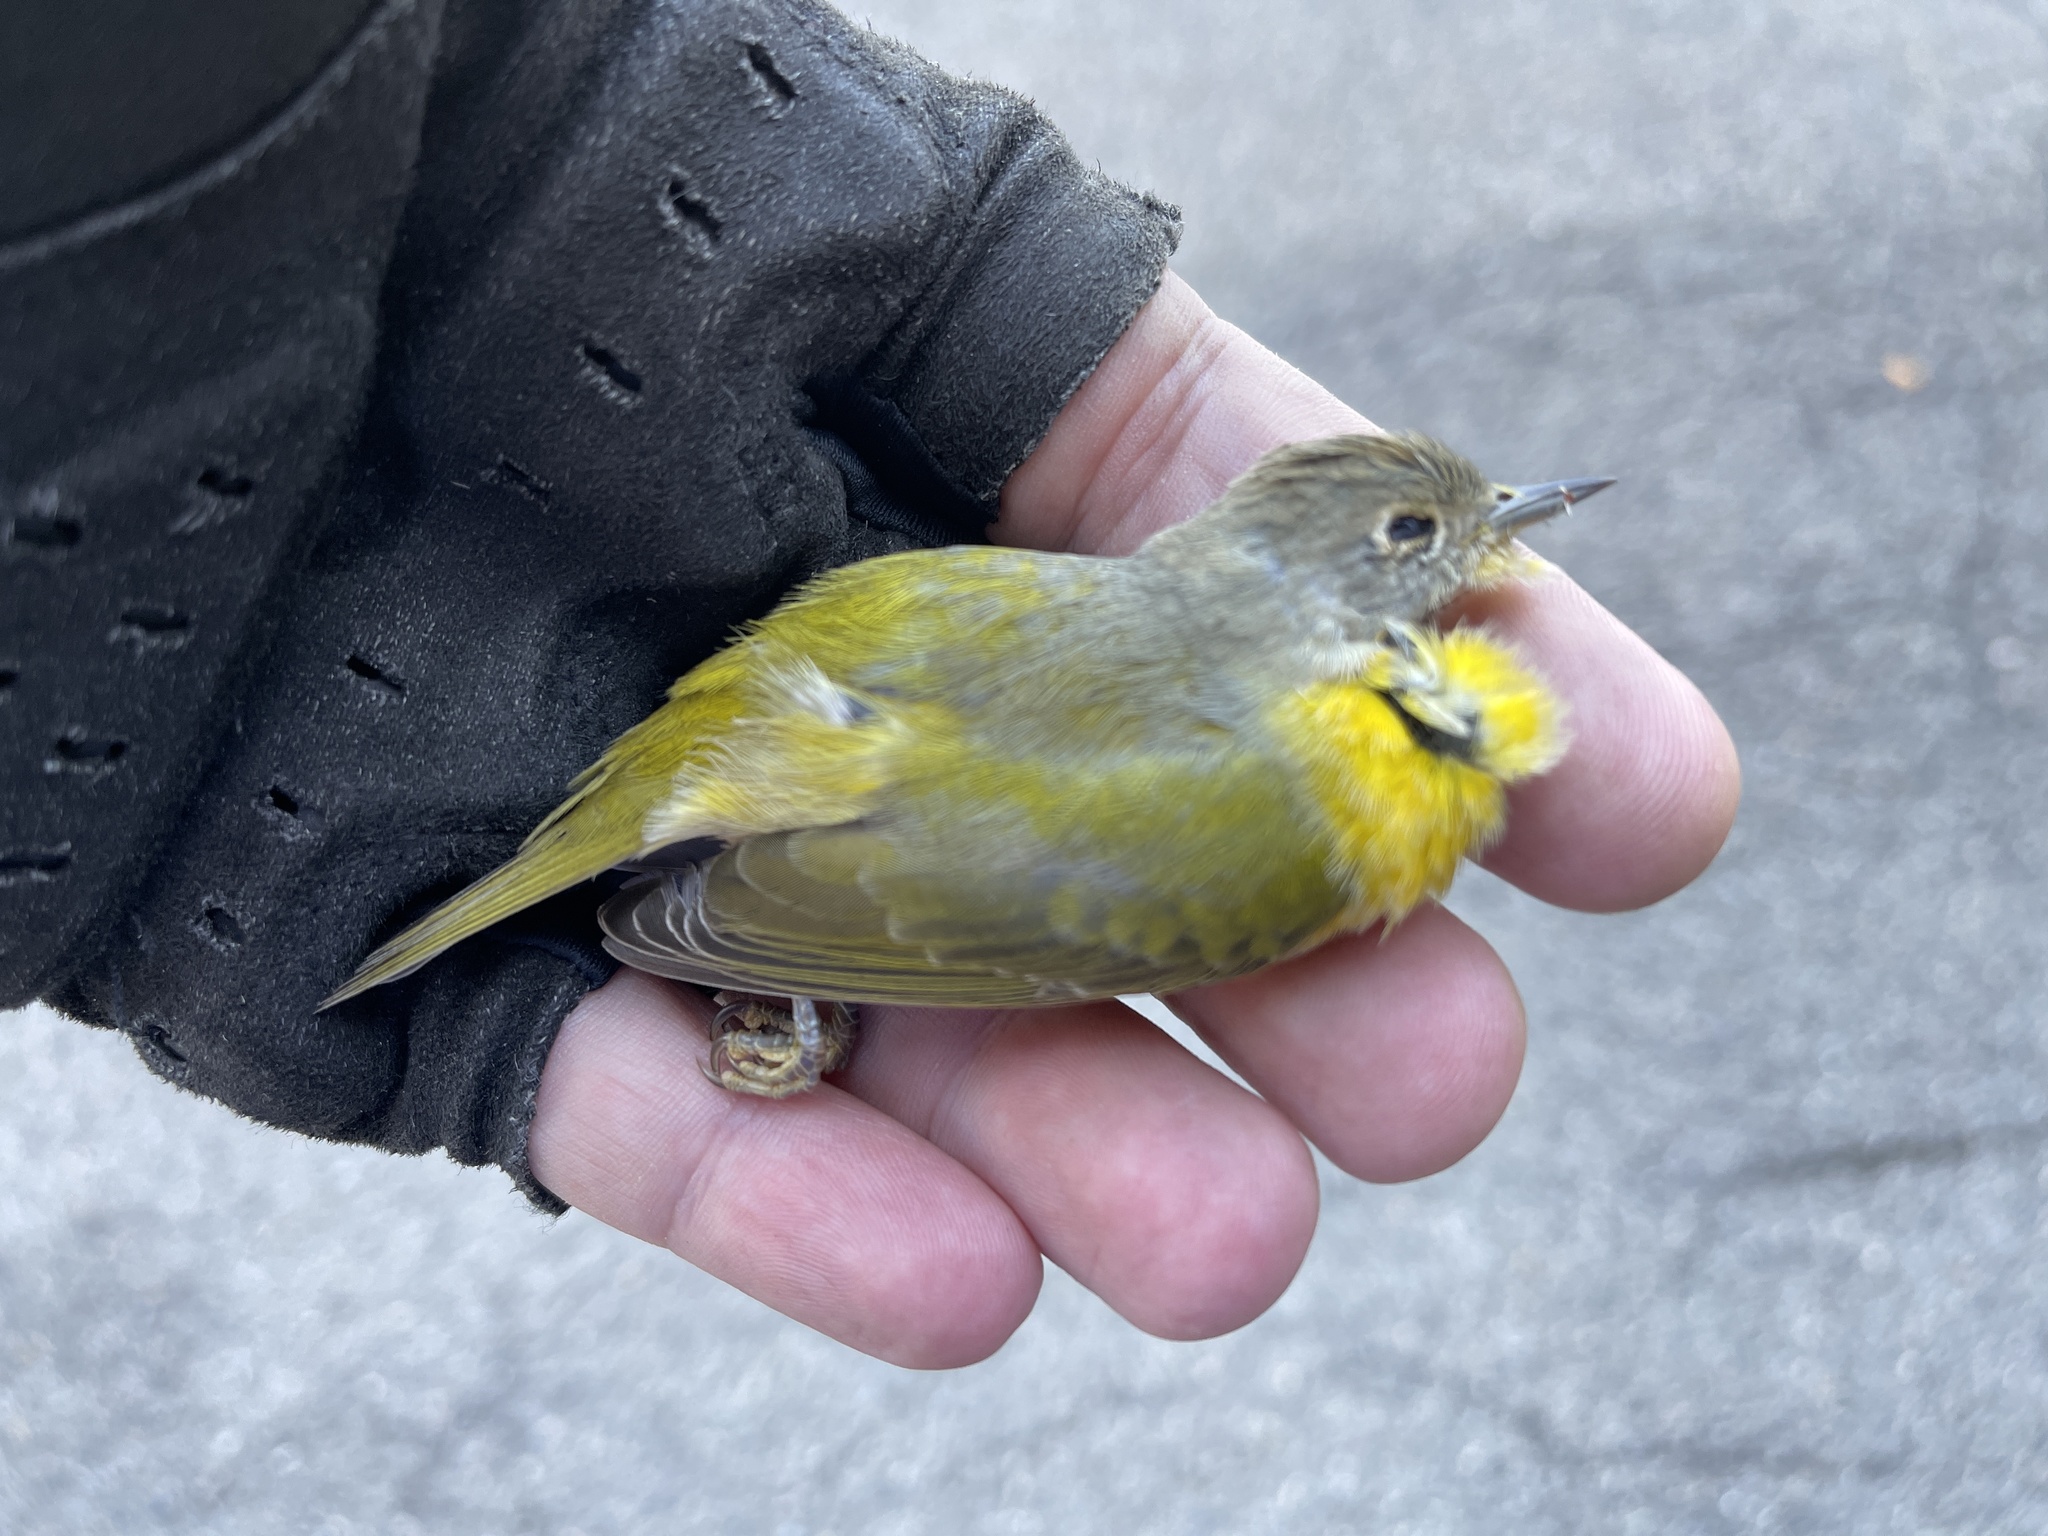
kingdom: Animalia
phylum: Chordata
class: Aves
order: Passeriformes
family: Parulidae
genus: Leiothlypis
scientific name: Leiothlypis ruficapilla
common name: Nashville warbler
